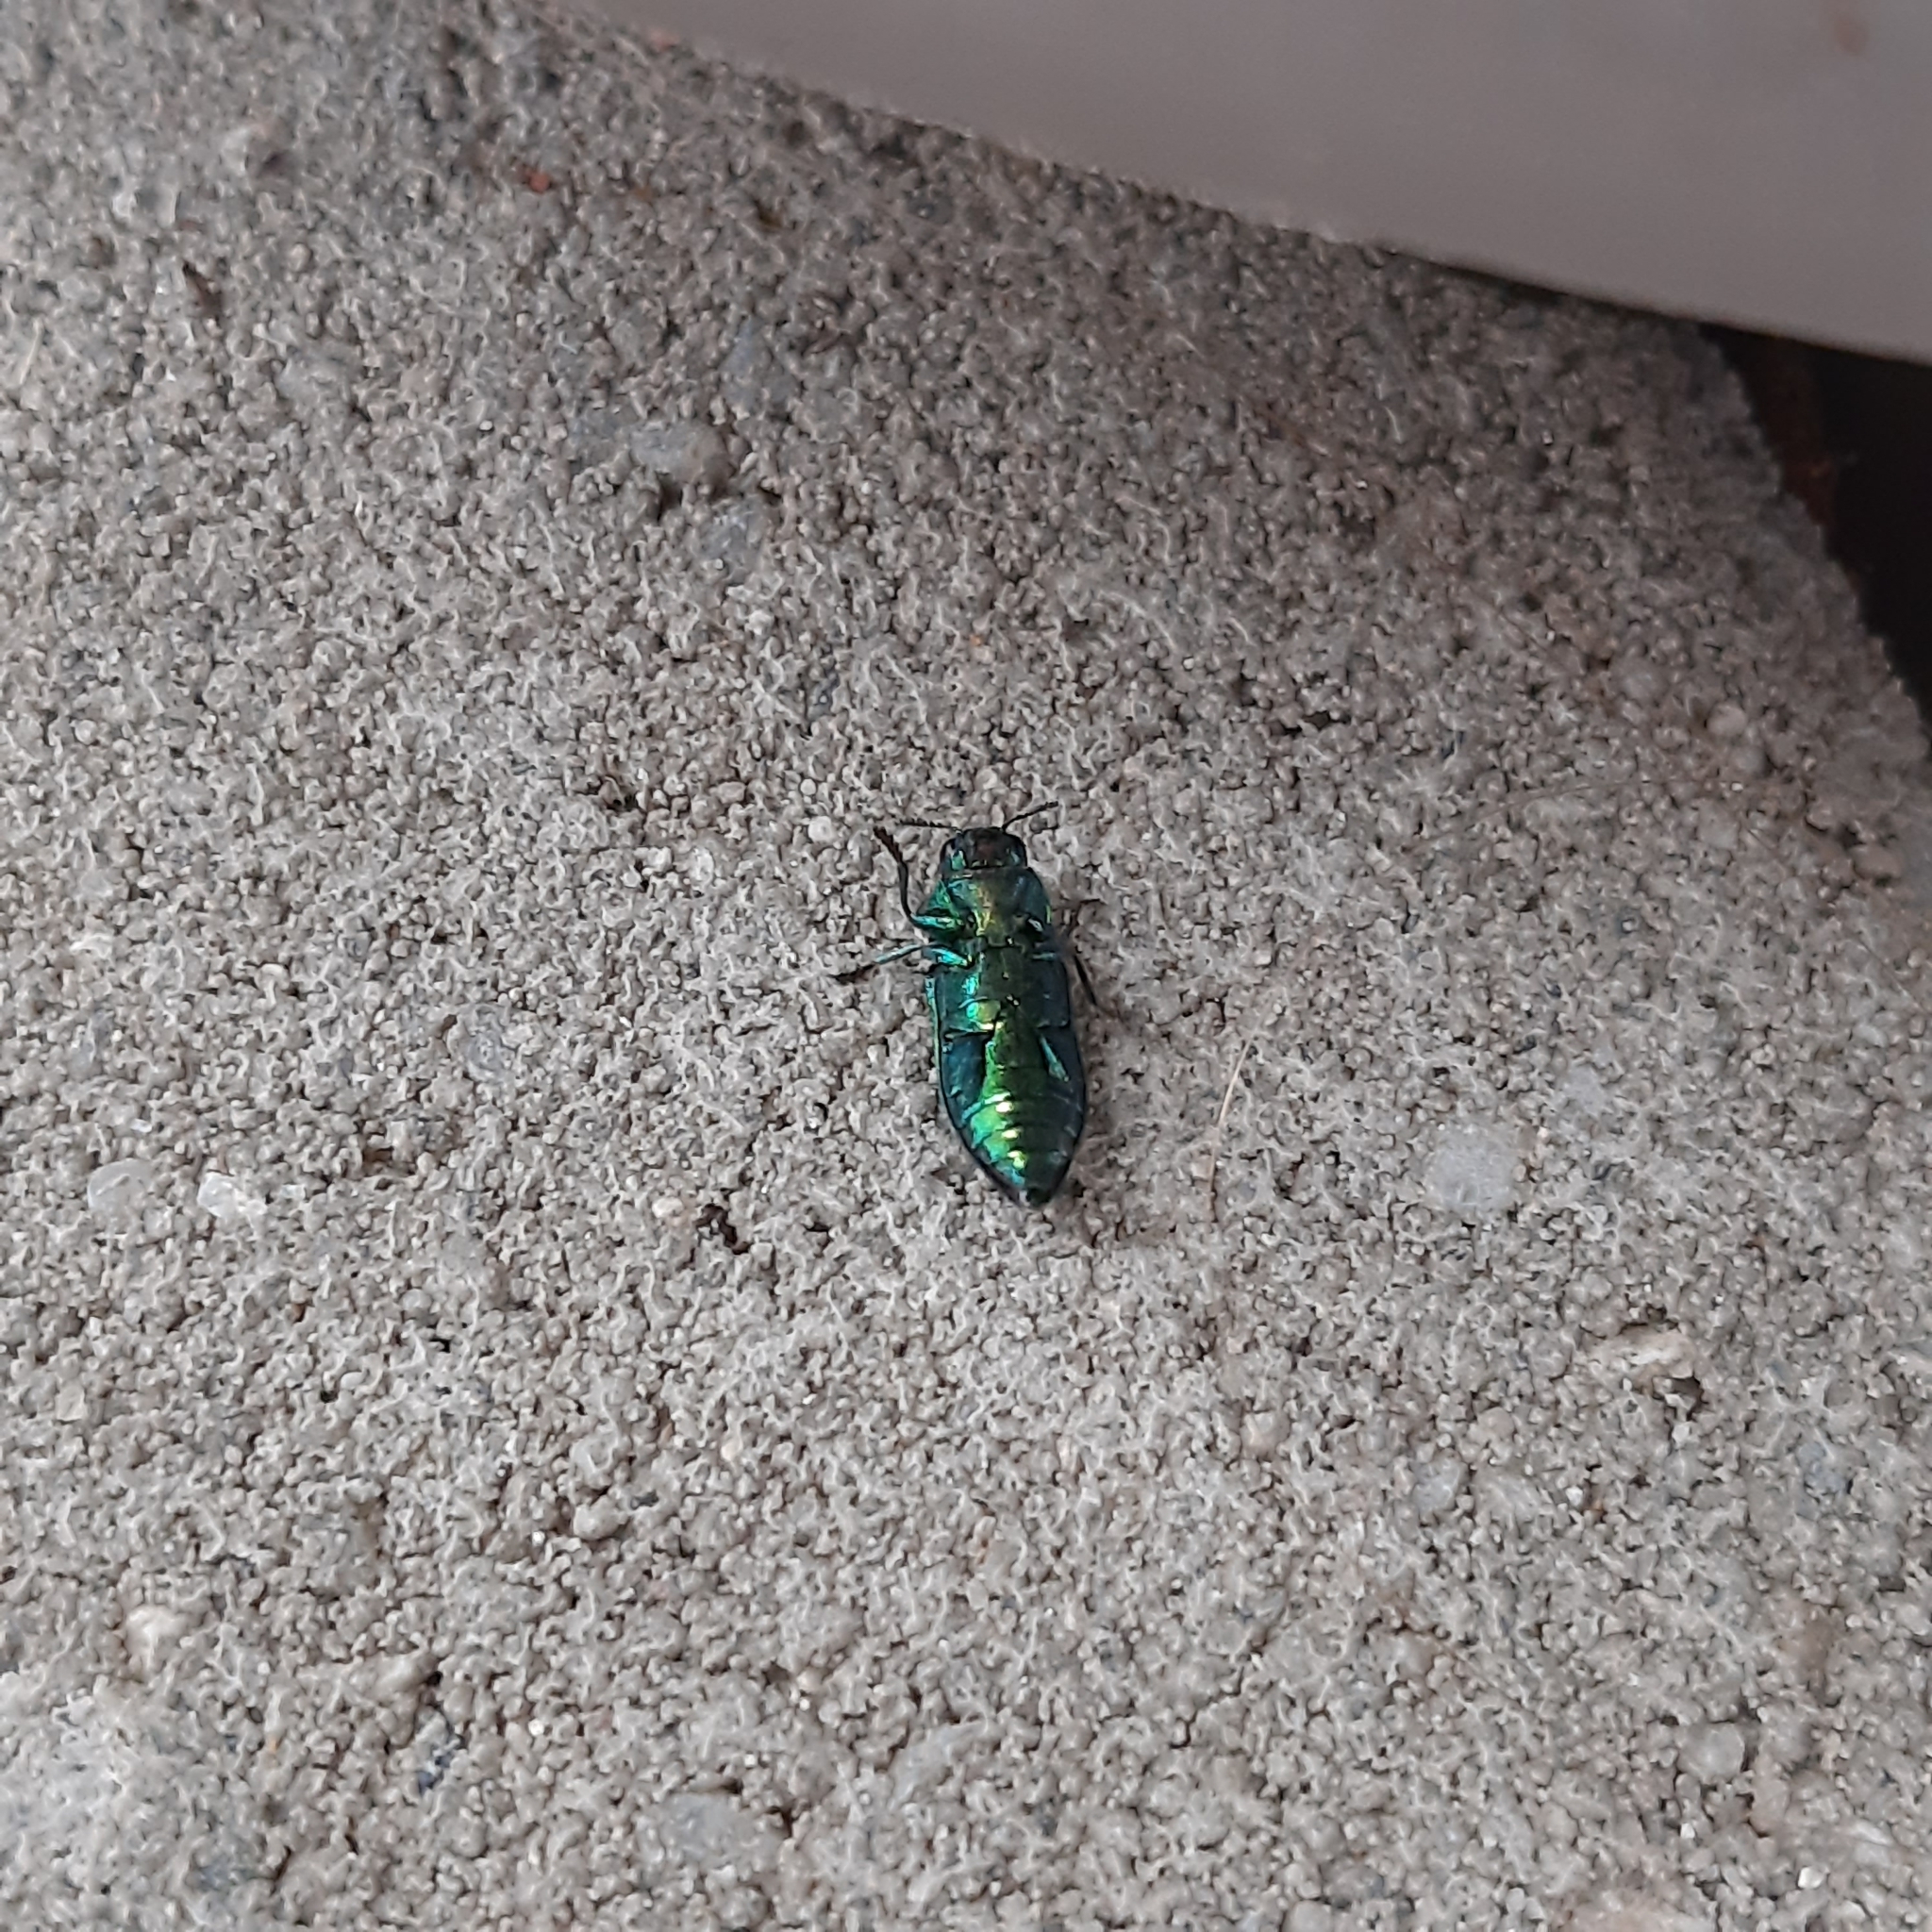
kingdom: Animalia
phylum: Arthropoda
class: Insecta
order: Coleoptera
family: Buprestidae
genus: Lamprodila
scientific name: Lamprodila festiva
